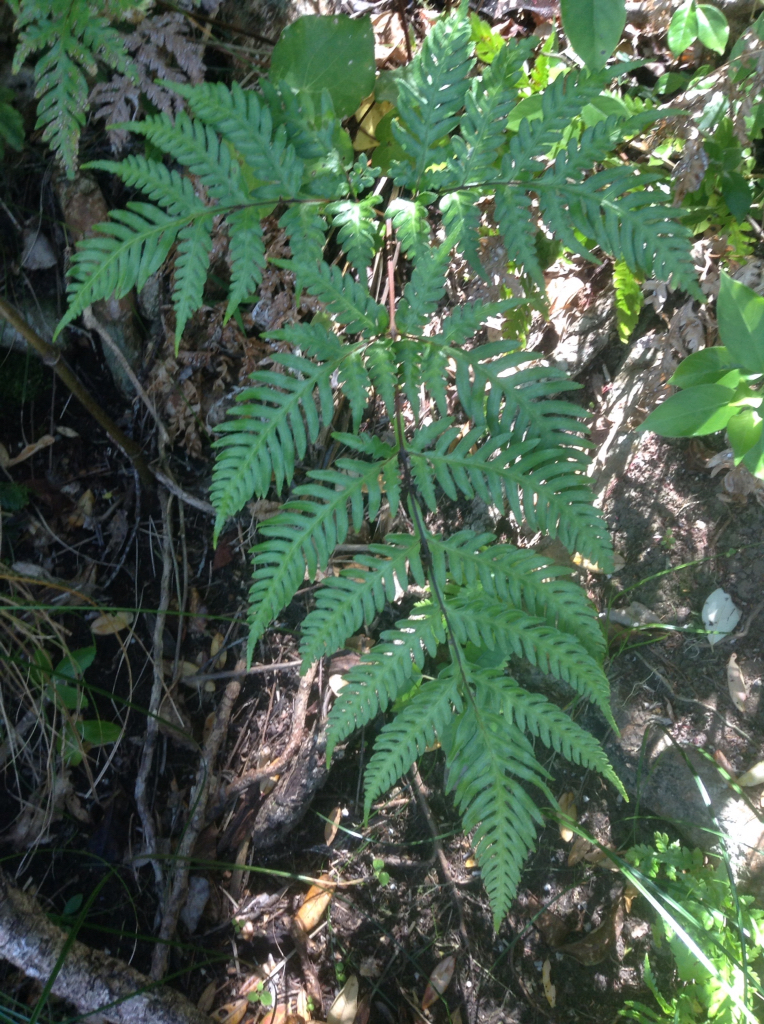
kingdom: Plantae
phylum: Tracheophyta
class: Polypodiopsida
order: Polypodiales
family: Pteridaceae
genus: Pteris
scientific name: Pteris carsei
